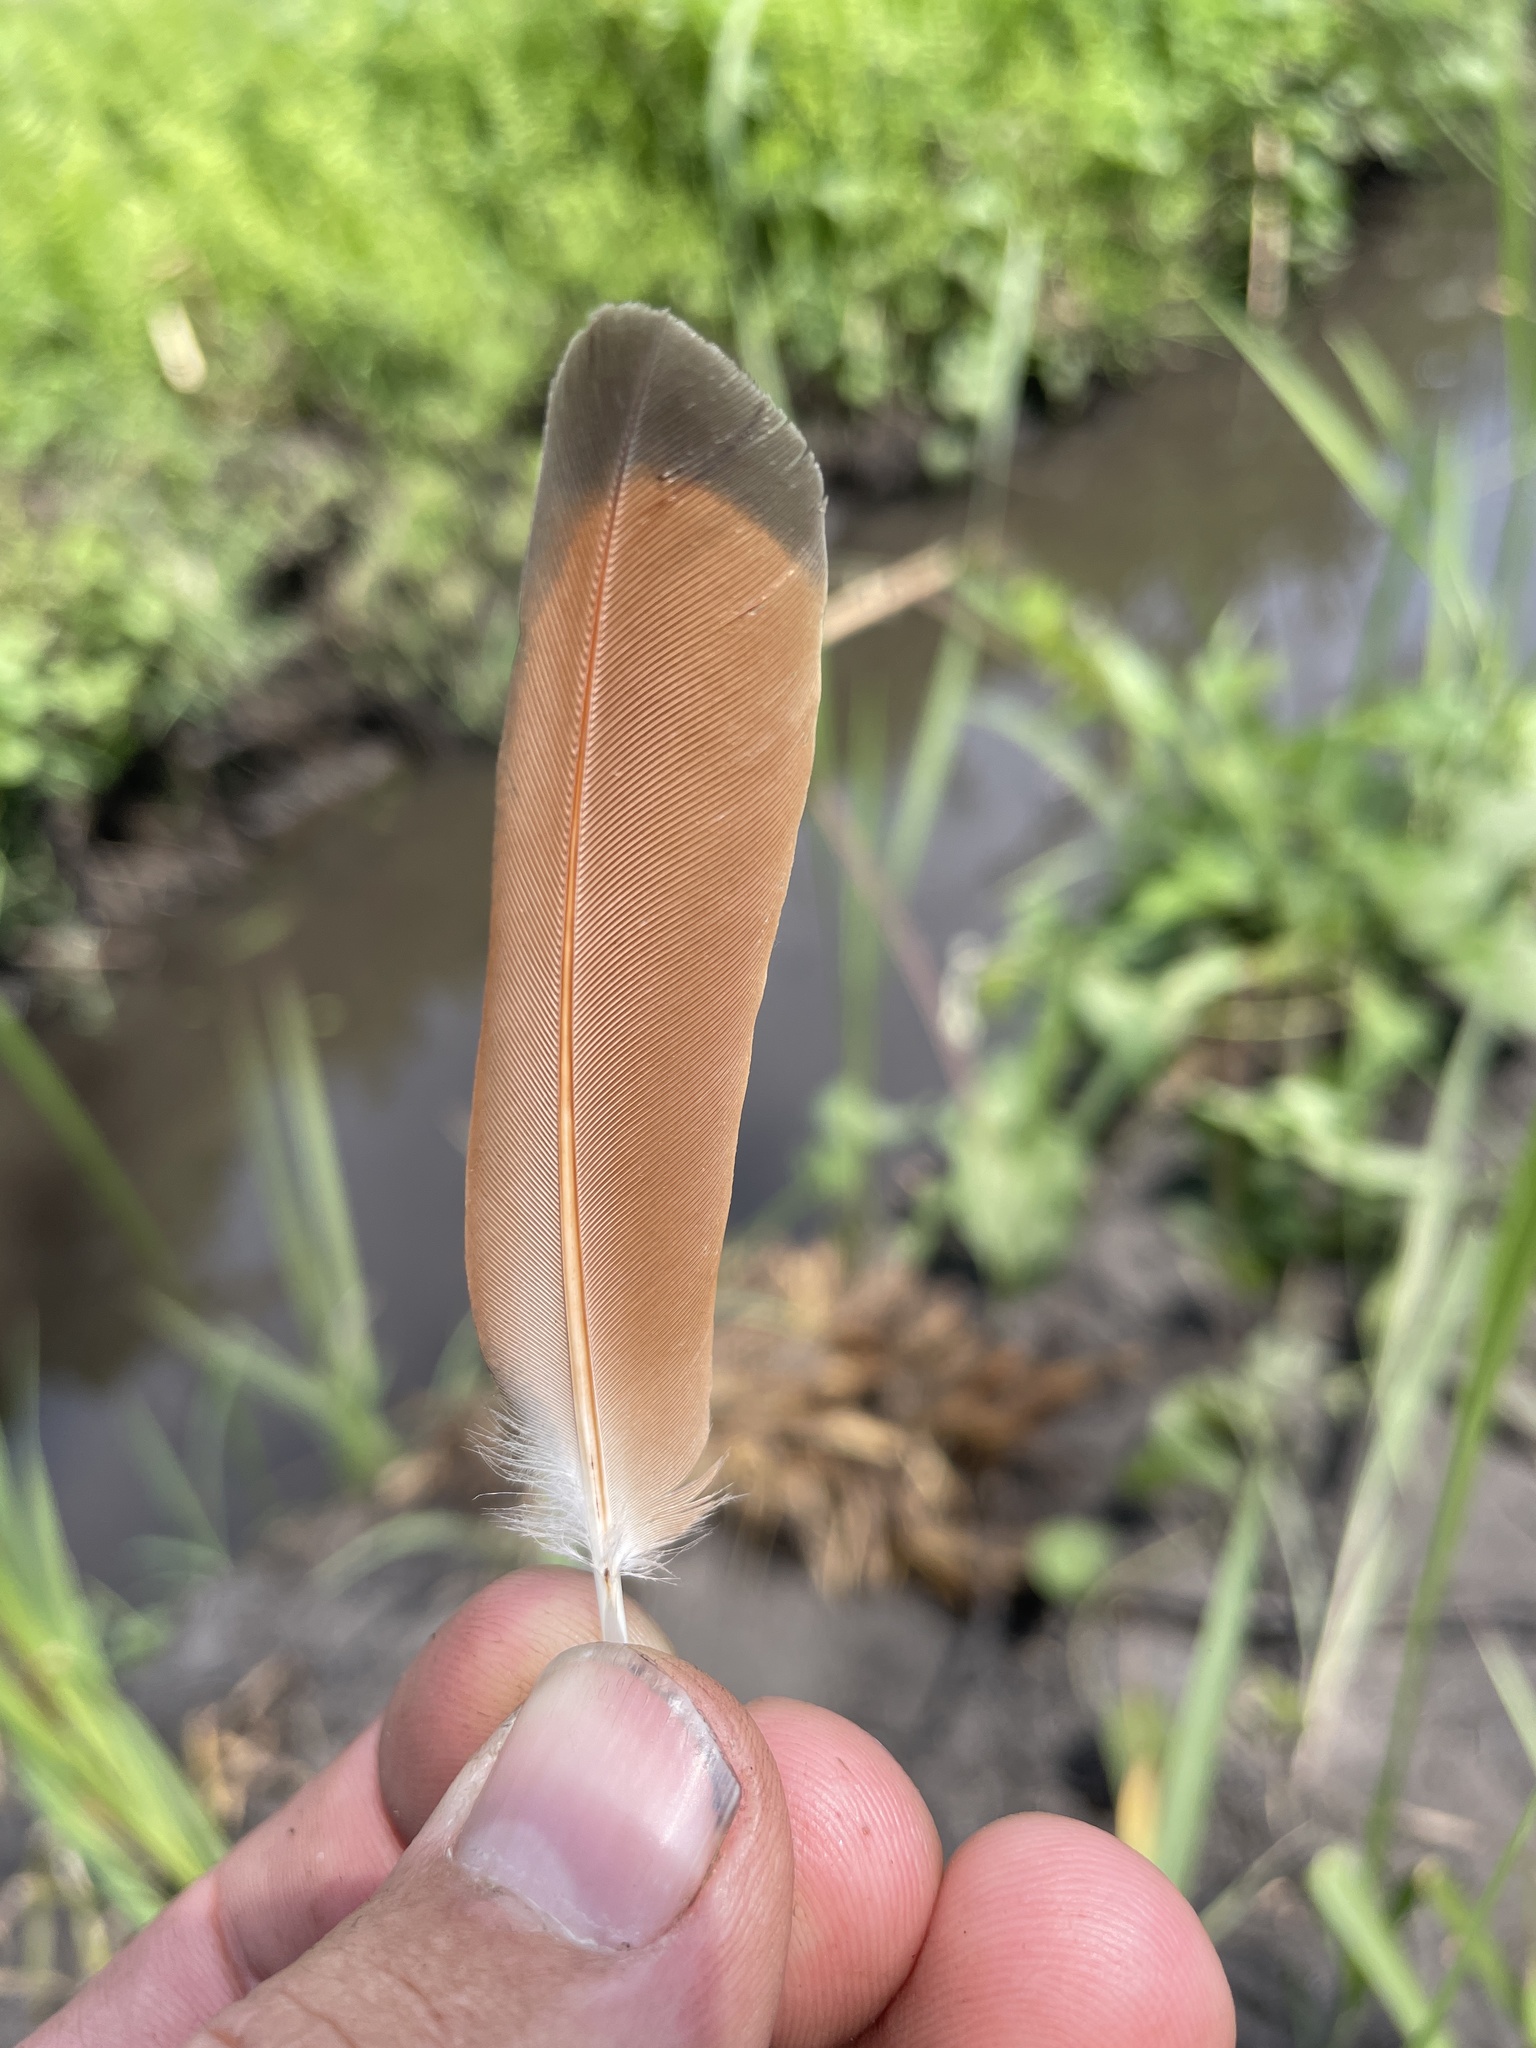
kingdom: Animalia
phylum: Chordata
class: Aves
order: Columbiformes
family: Columbidae
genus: Oena
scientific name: Oena capensis
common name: Namaqua dove
